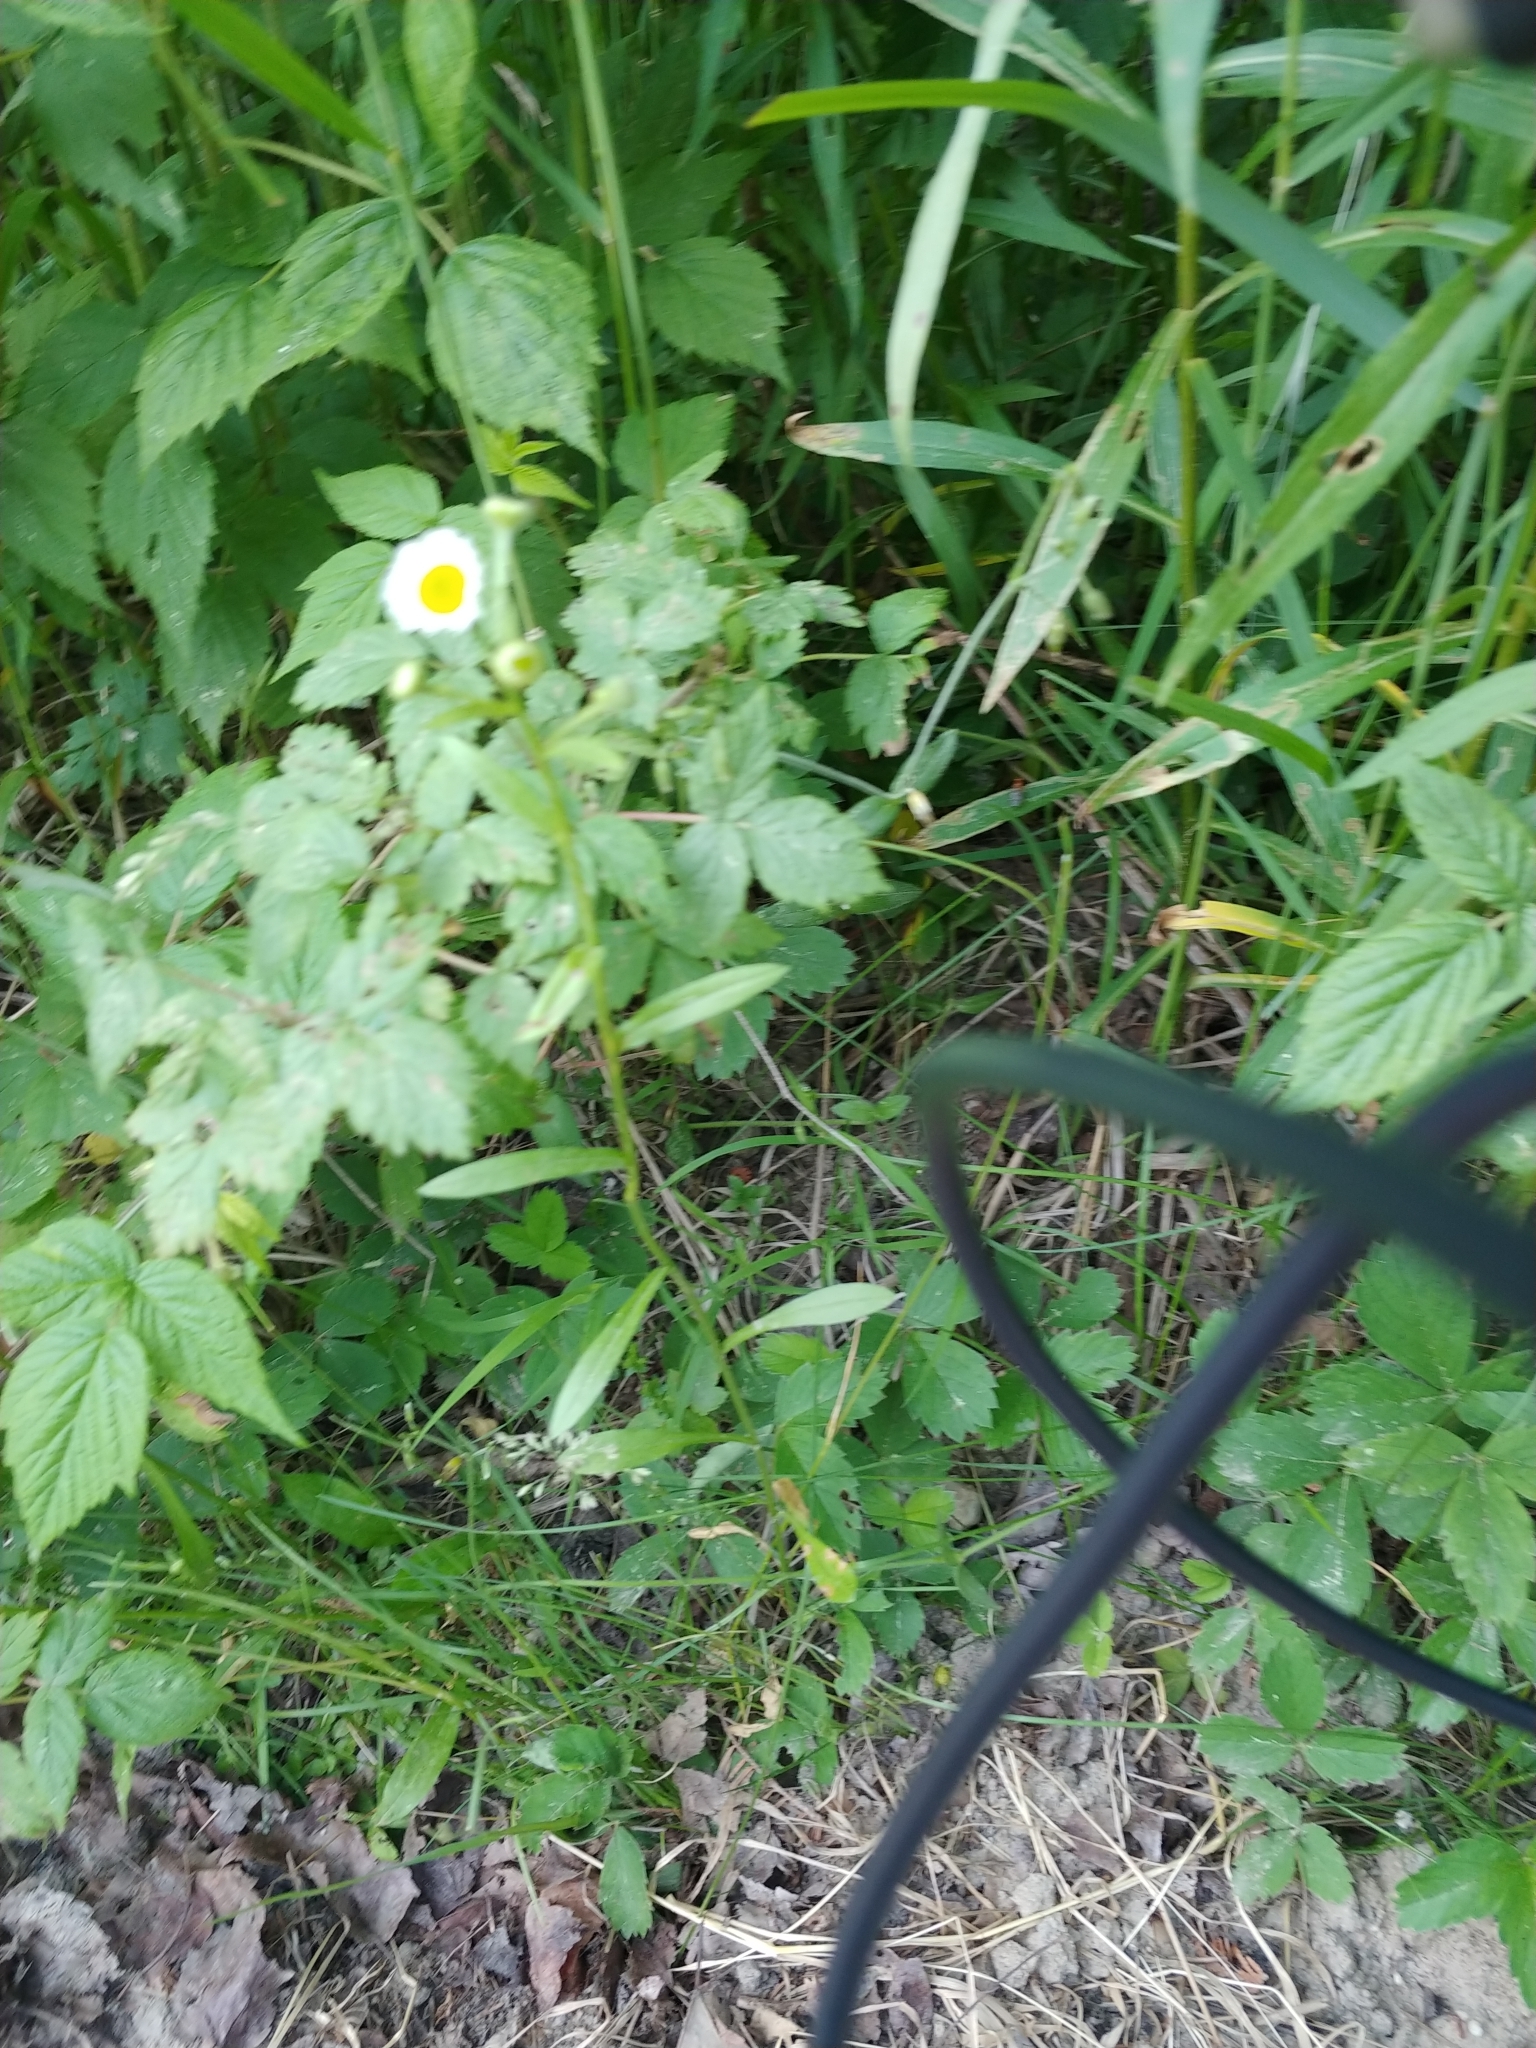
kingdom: Plantae
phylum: Tracheophyta
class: Magnoliopsida
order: Asterales
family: Asteraceae
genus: Erigeron
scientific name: Erigeron strigosus
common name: Common eastern fleabane
